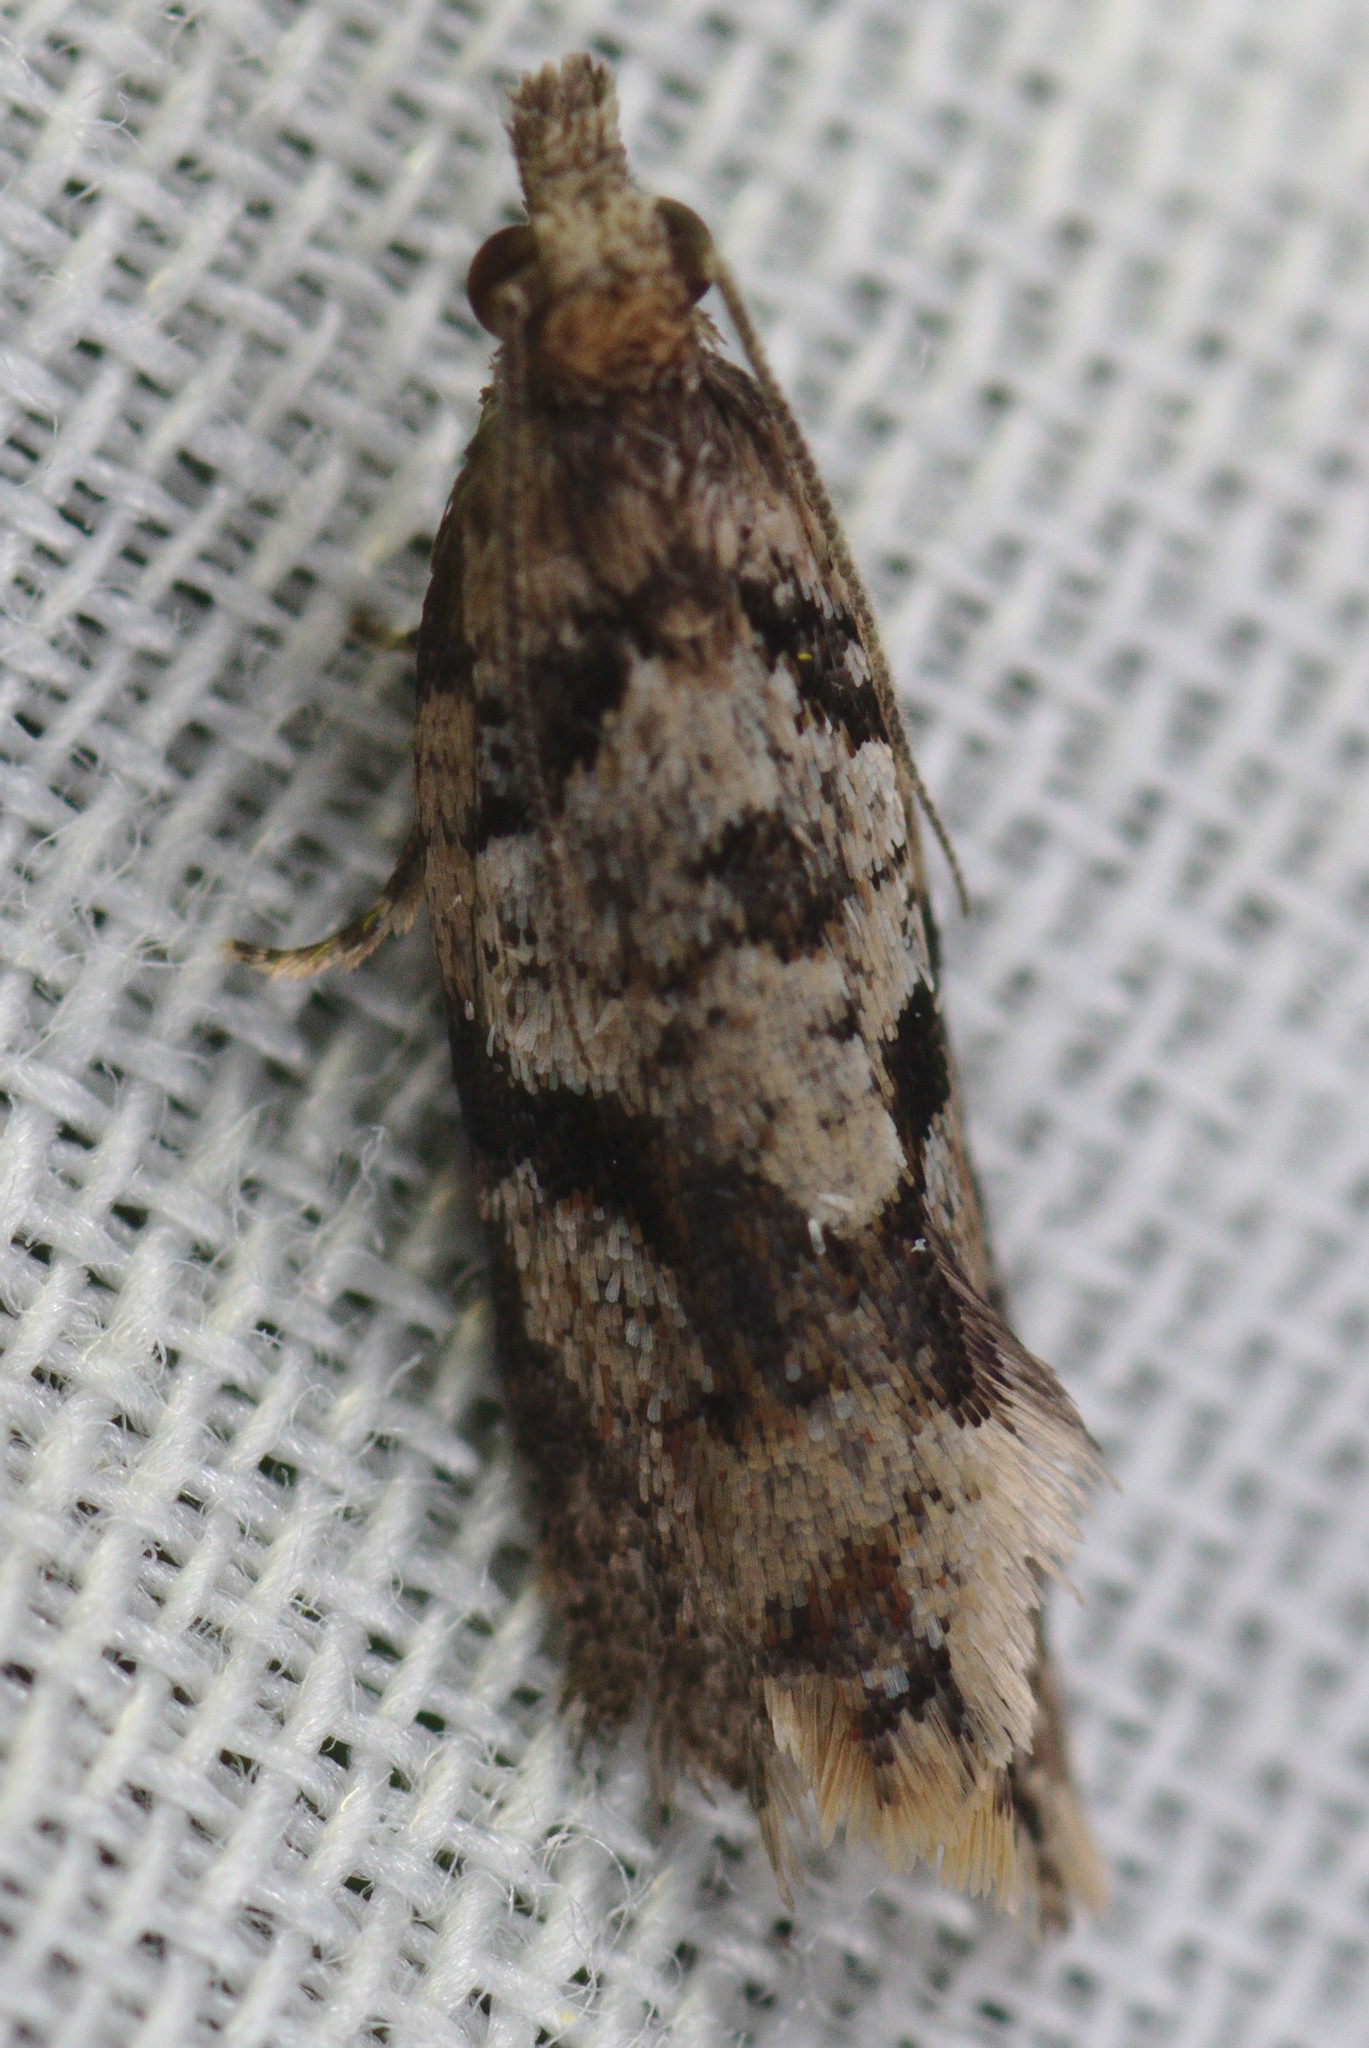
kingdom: Animalia
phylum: Arthropoda
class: Insecta
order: Lepidoptera
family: Tortricidae
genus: Capua
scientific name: Capua semiferana
